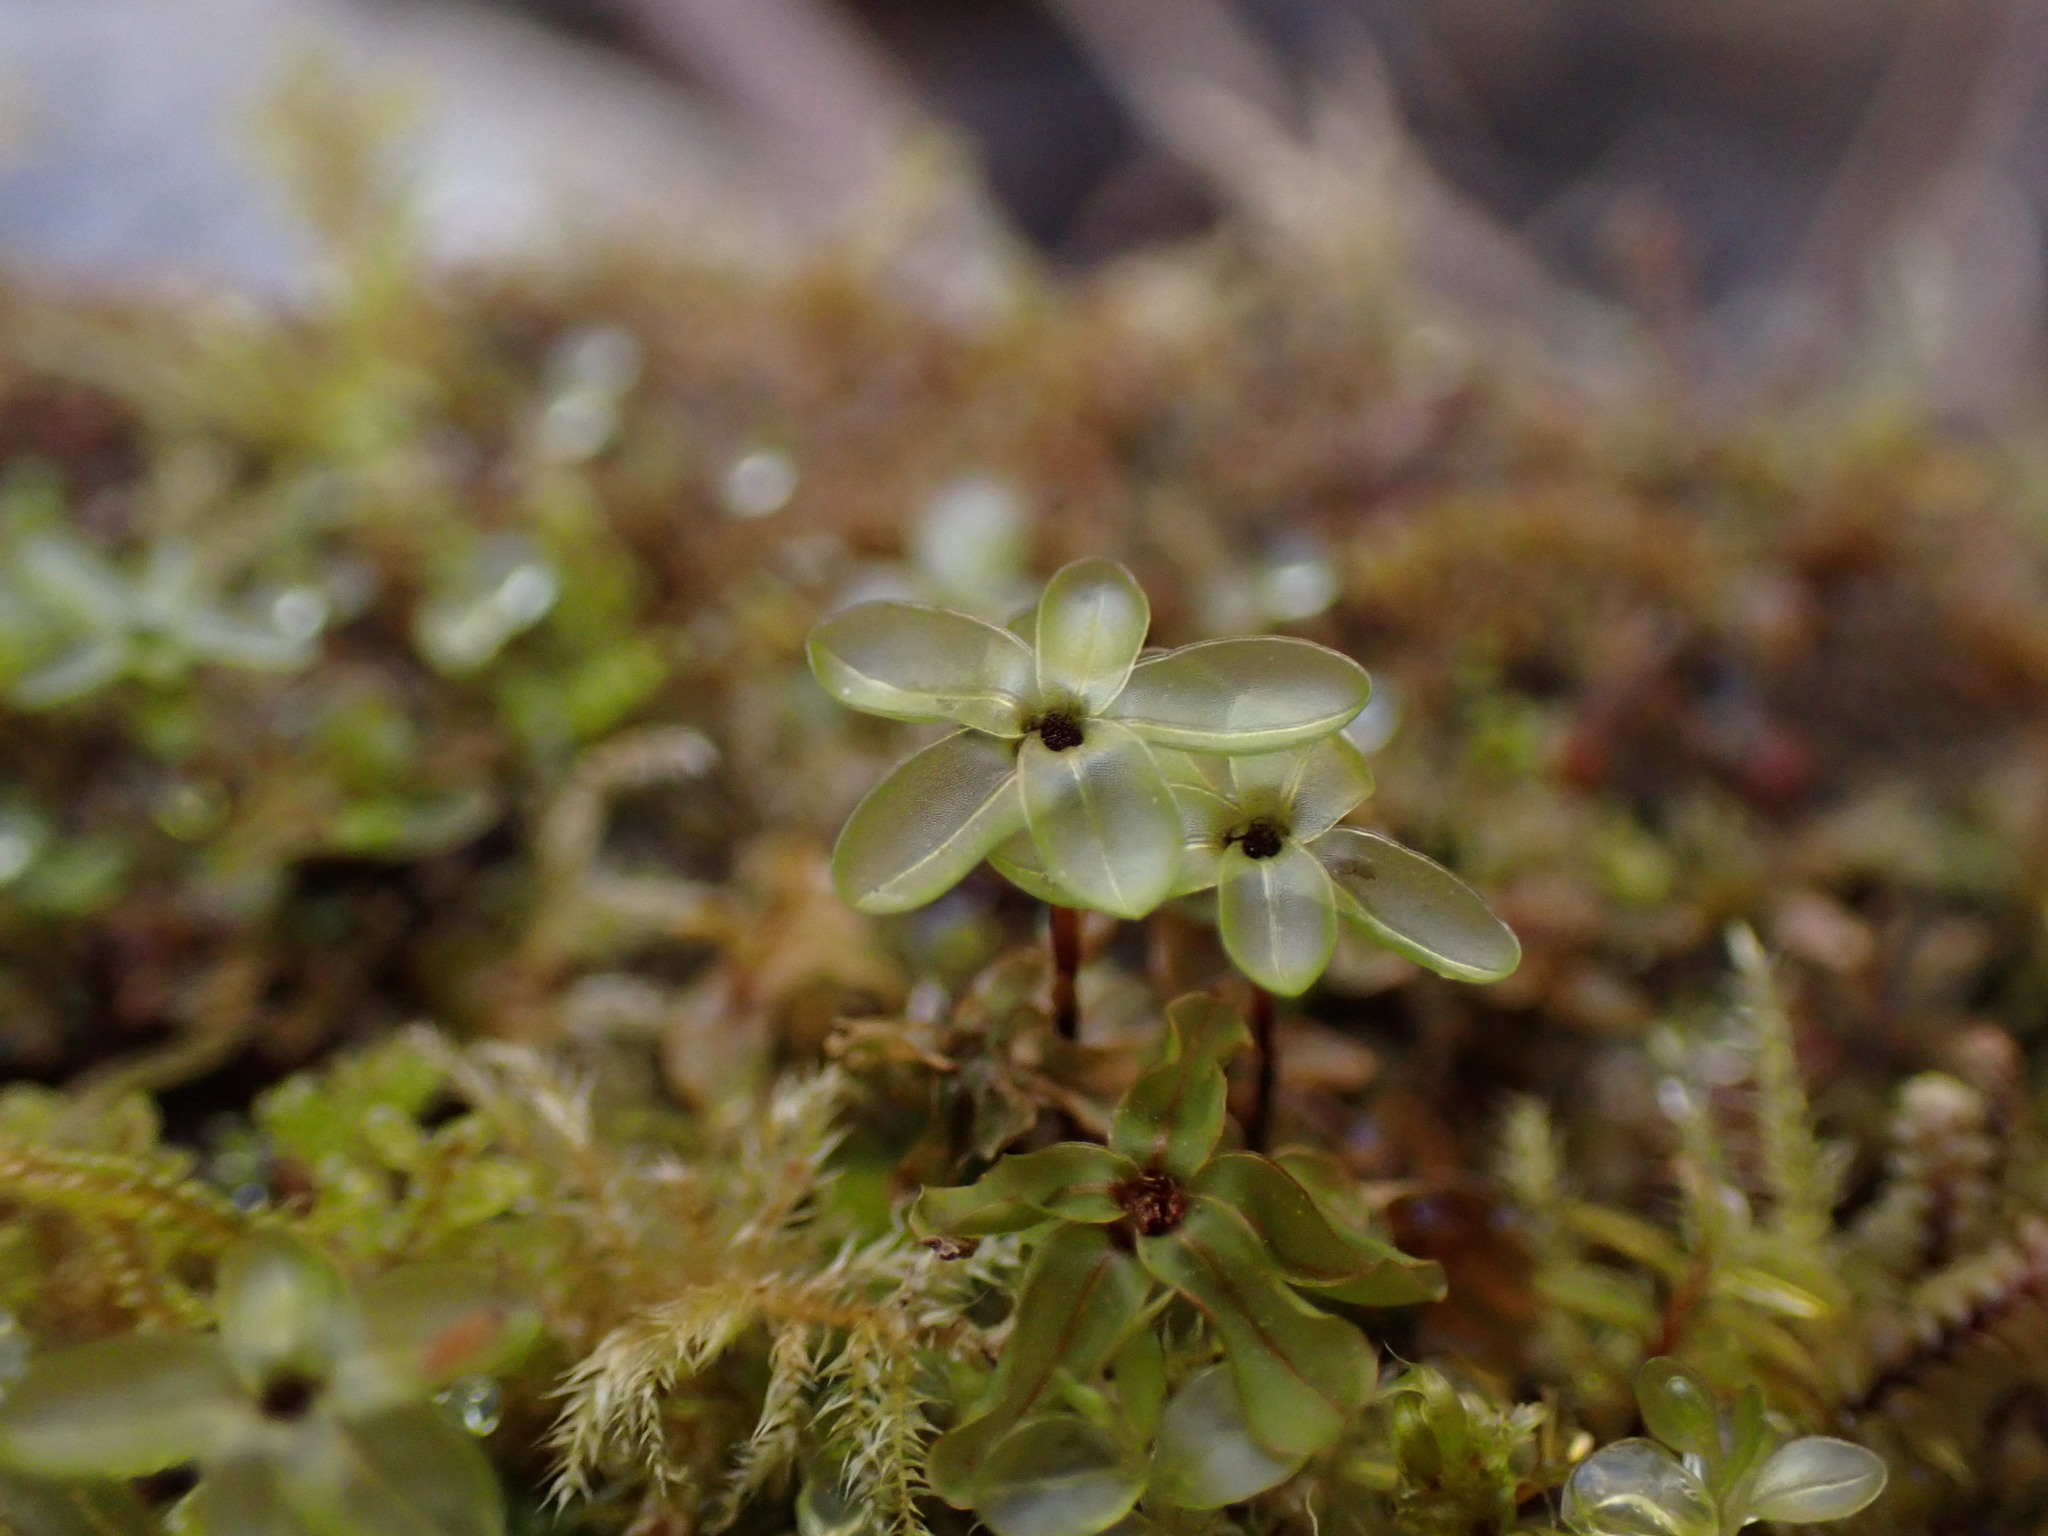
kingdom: Plantae
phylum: Bryophyta
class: Bryopsida
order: Bryales
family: Mniaceae
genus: Rhizomnium
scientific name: Rhizomnium glabrescens
